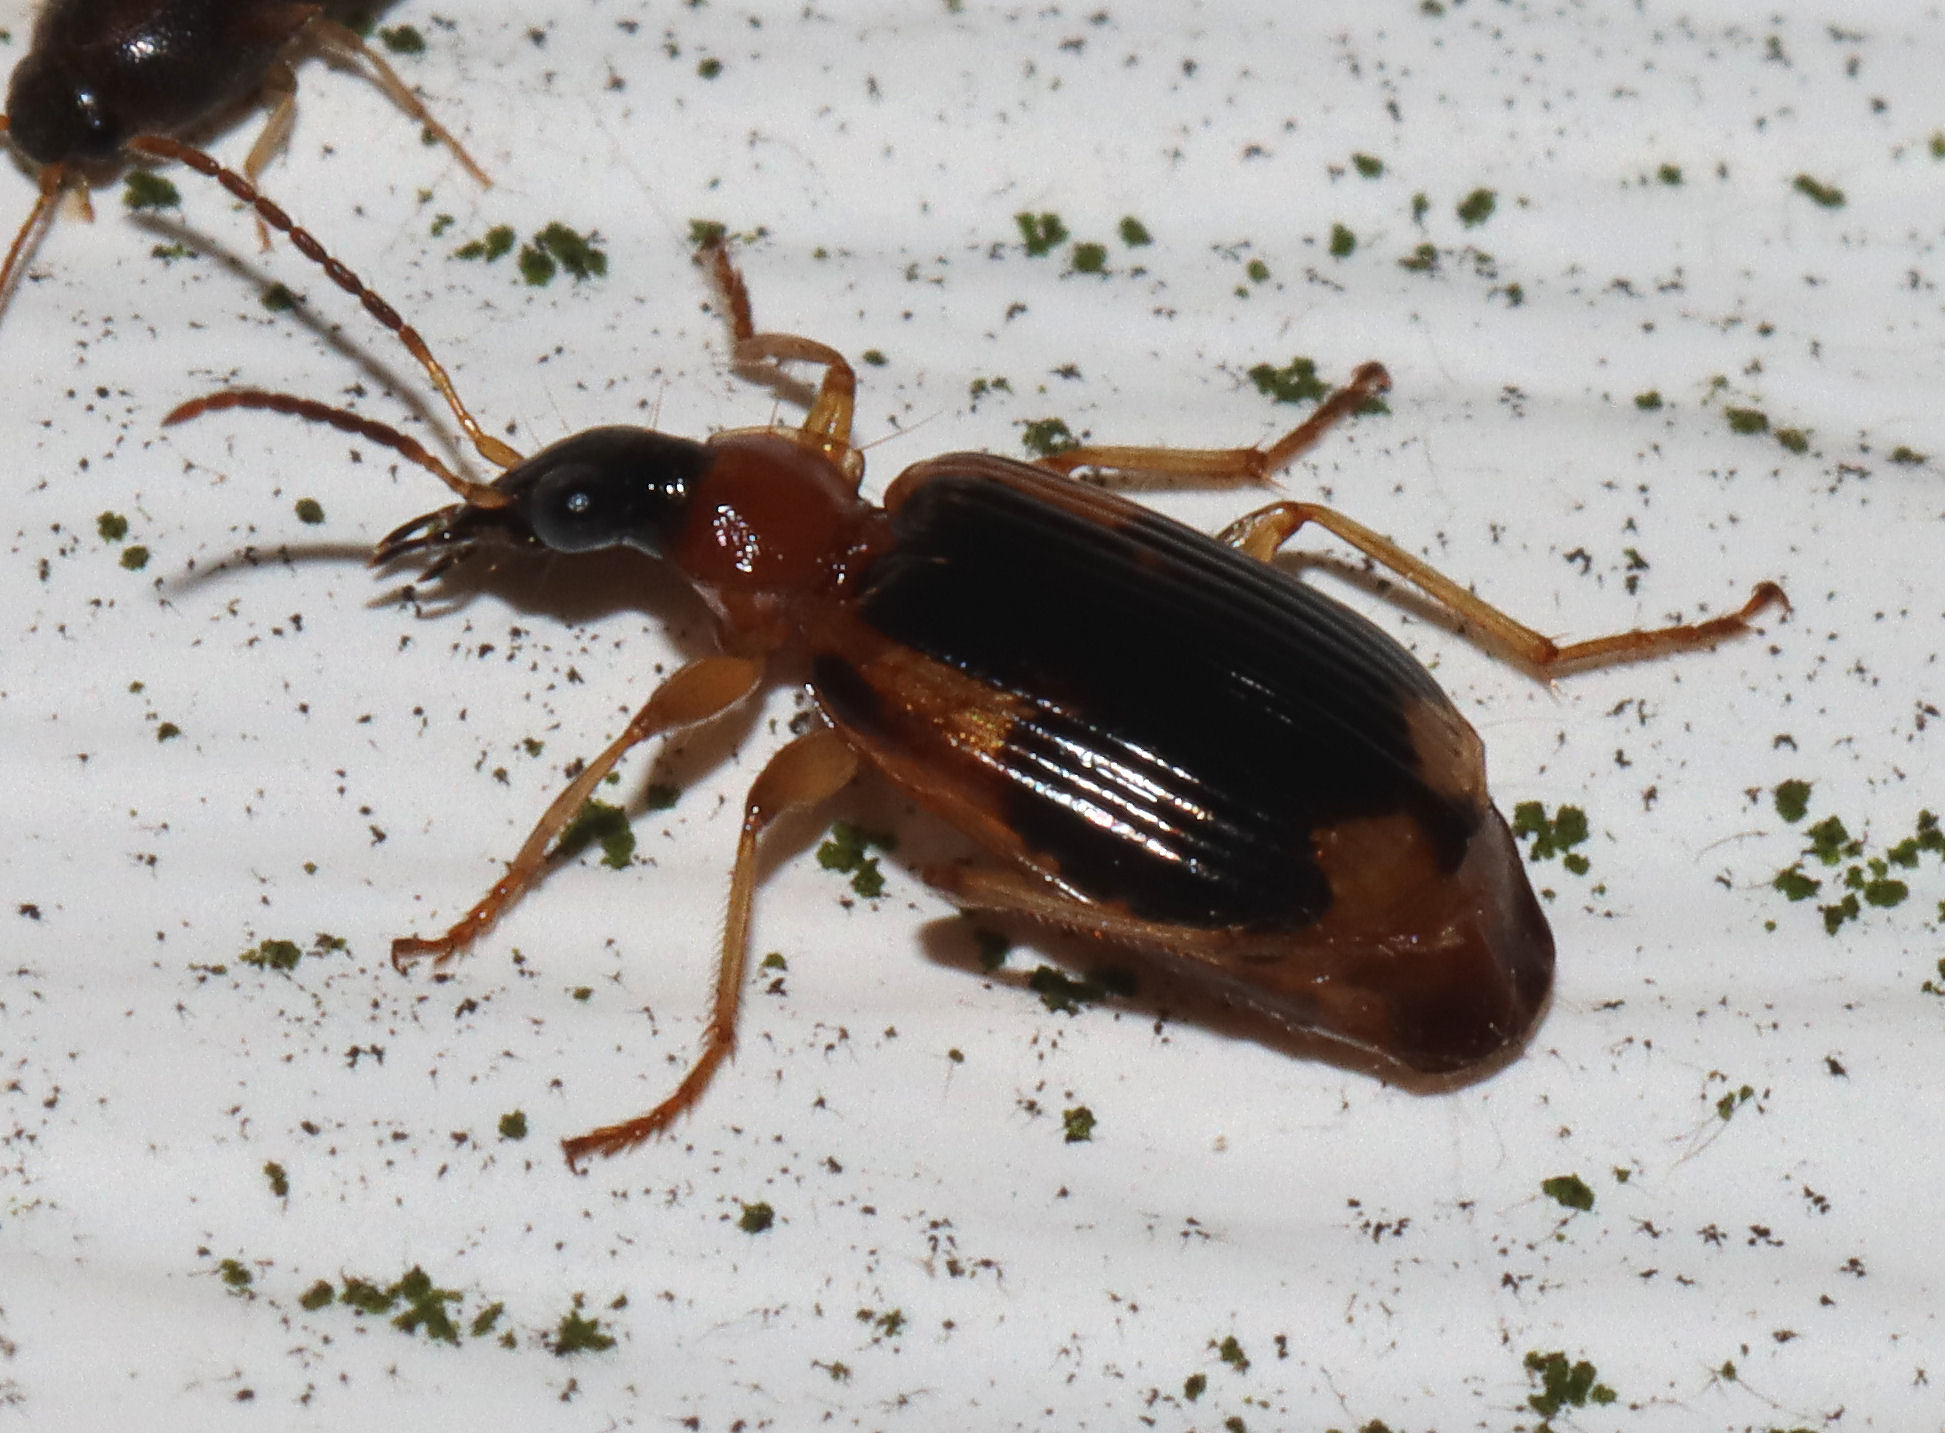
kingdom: Animalia
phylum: Arthropoda
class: Insecta
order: Coleoptera
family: Carabidae
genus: Lebia
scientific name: Lebia analis
